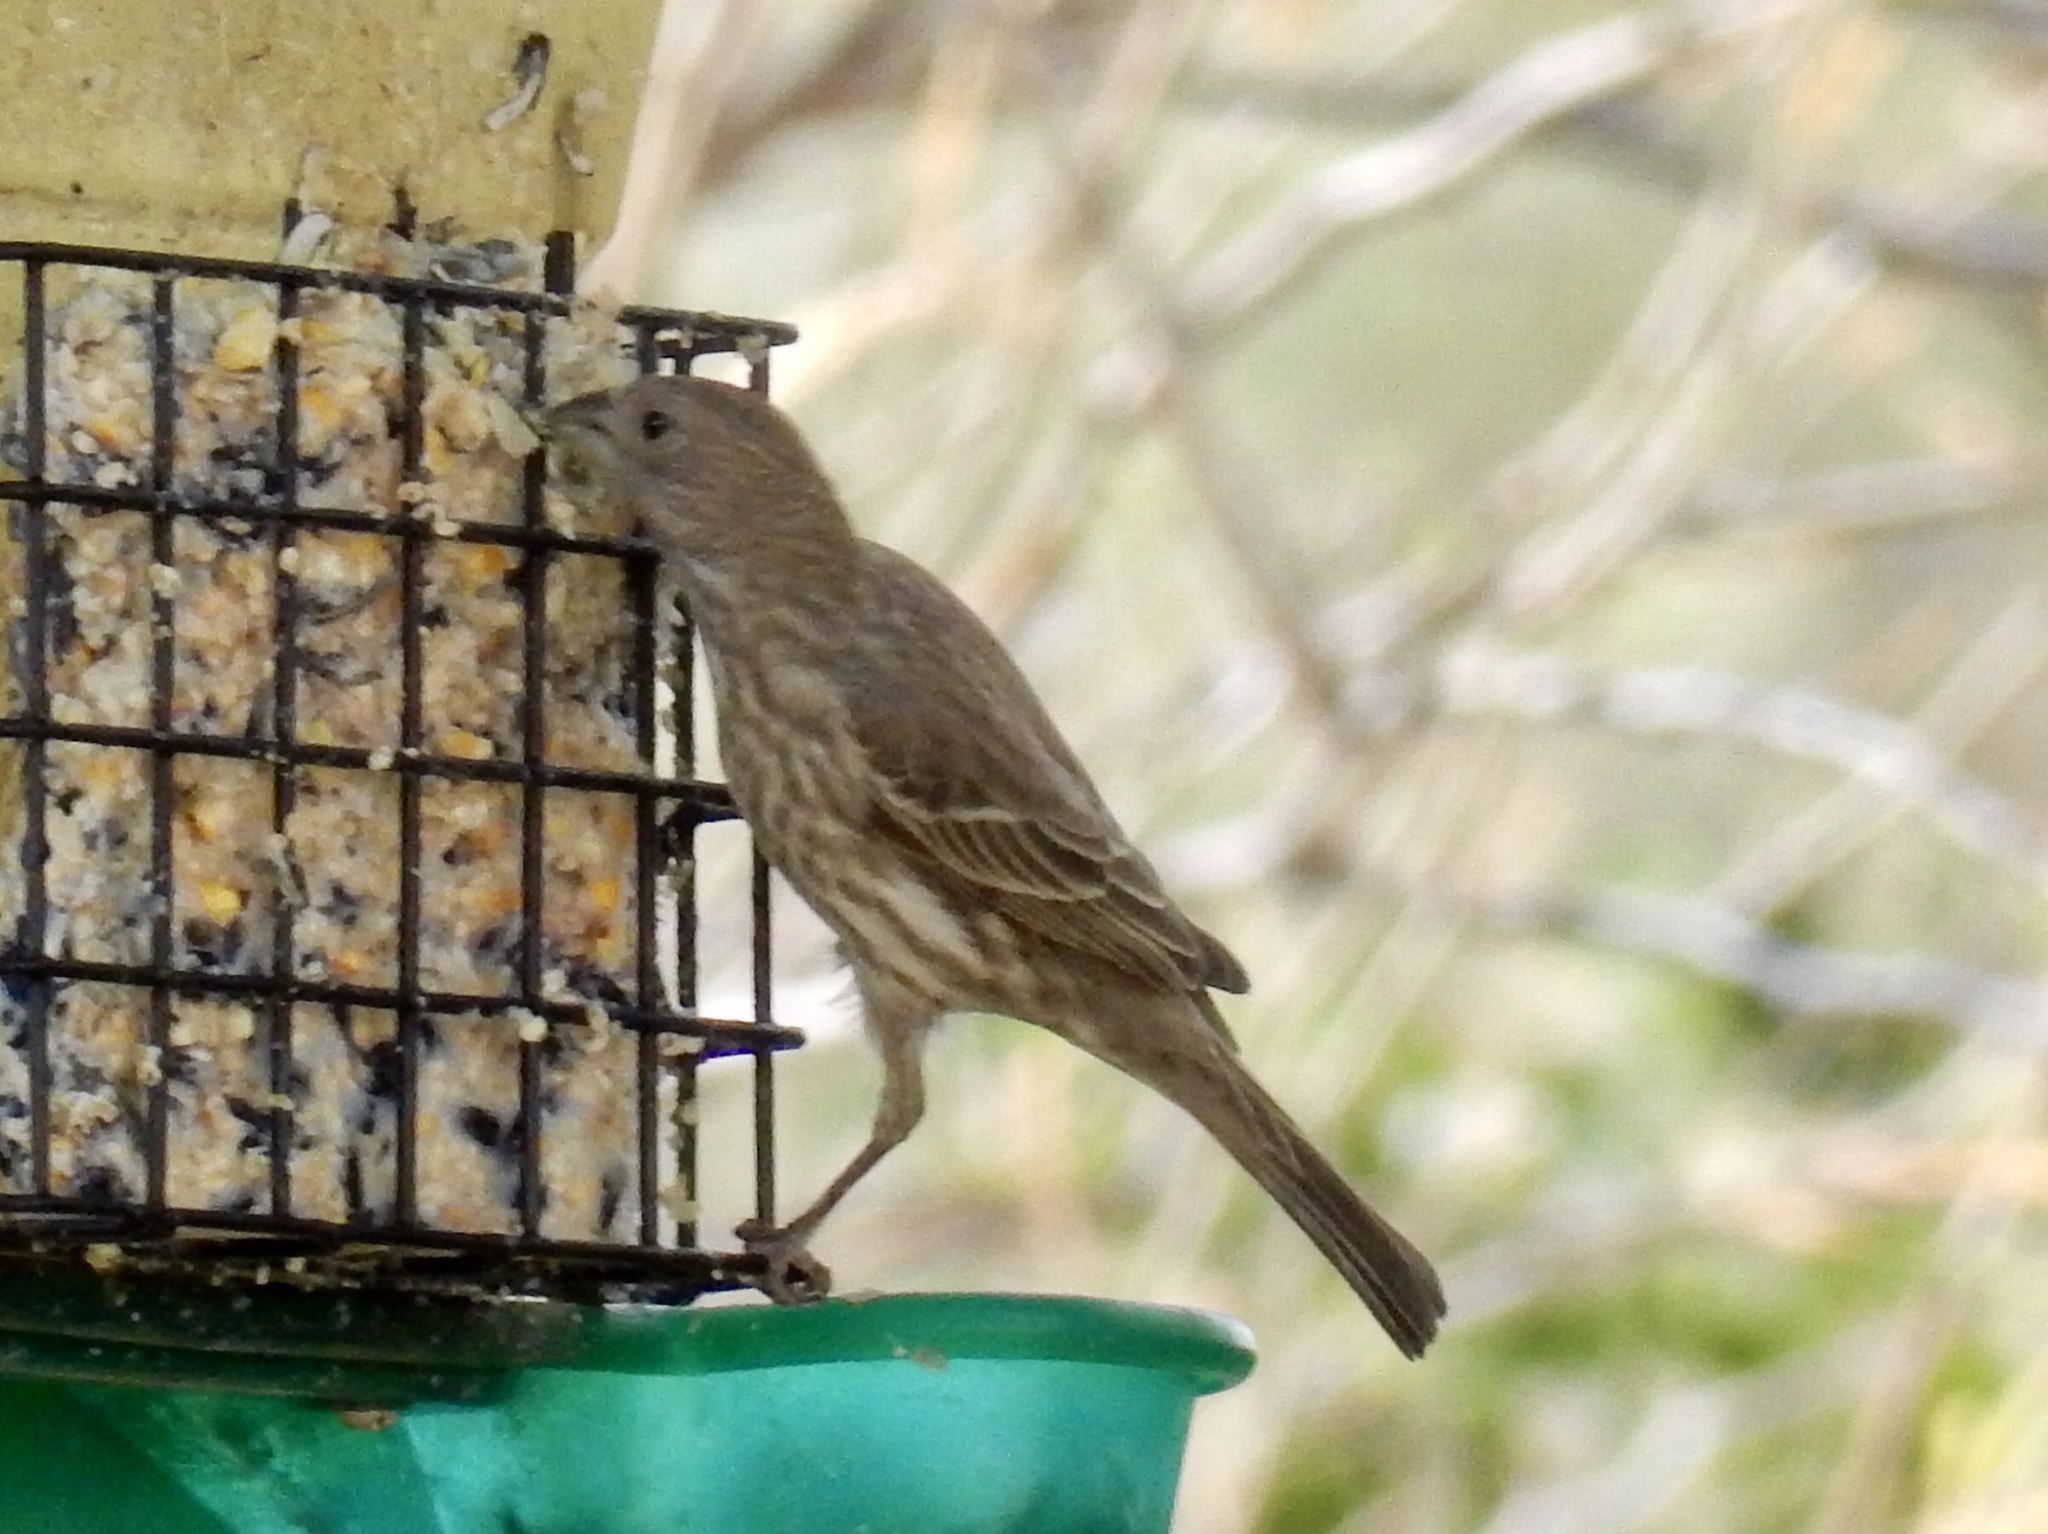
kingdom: Animalia
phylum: Chordata
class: Aves
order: Passeriformes
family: Fringillidae
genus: Haemorhous
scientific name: Haemorhous mexicanus
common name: House finch
